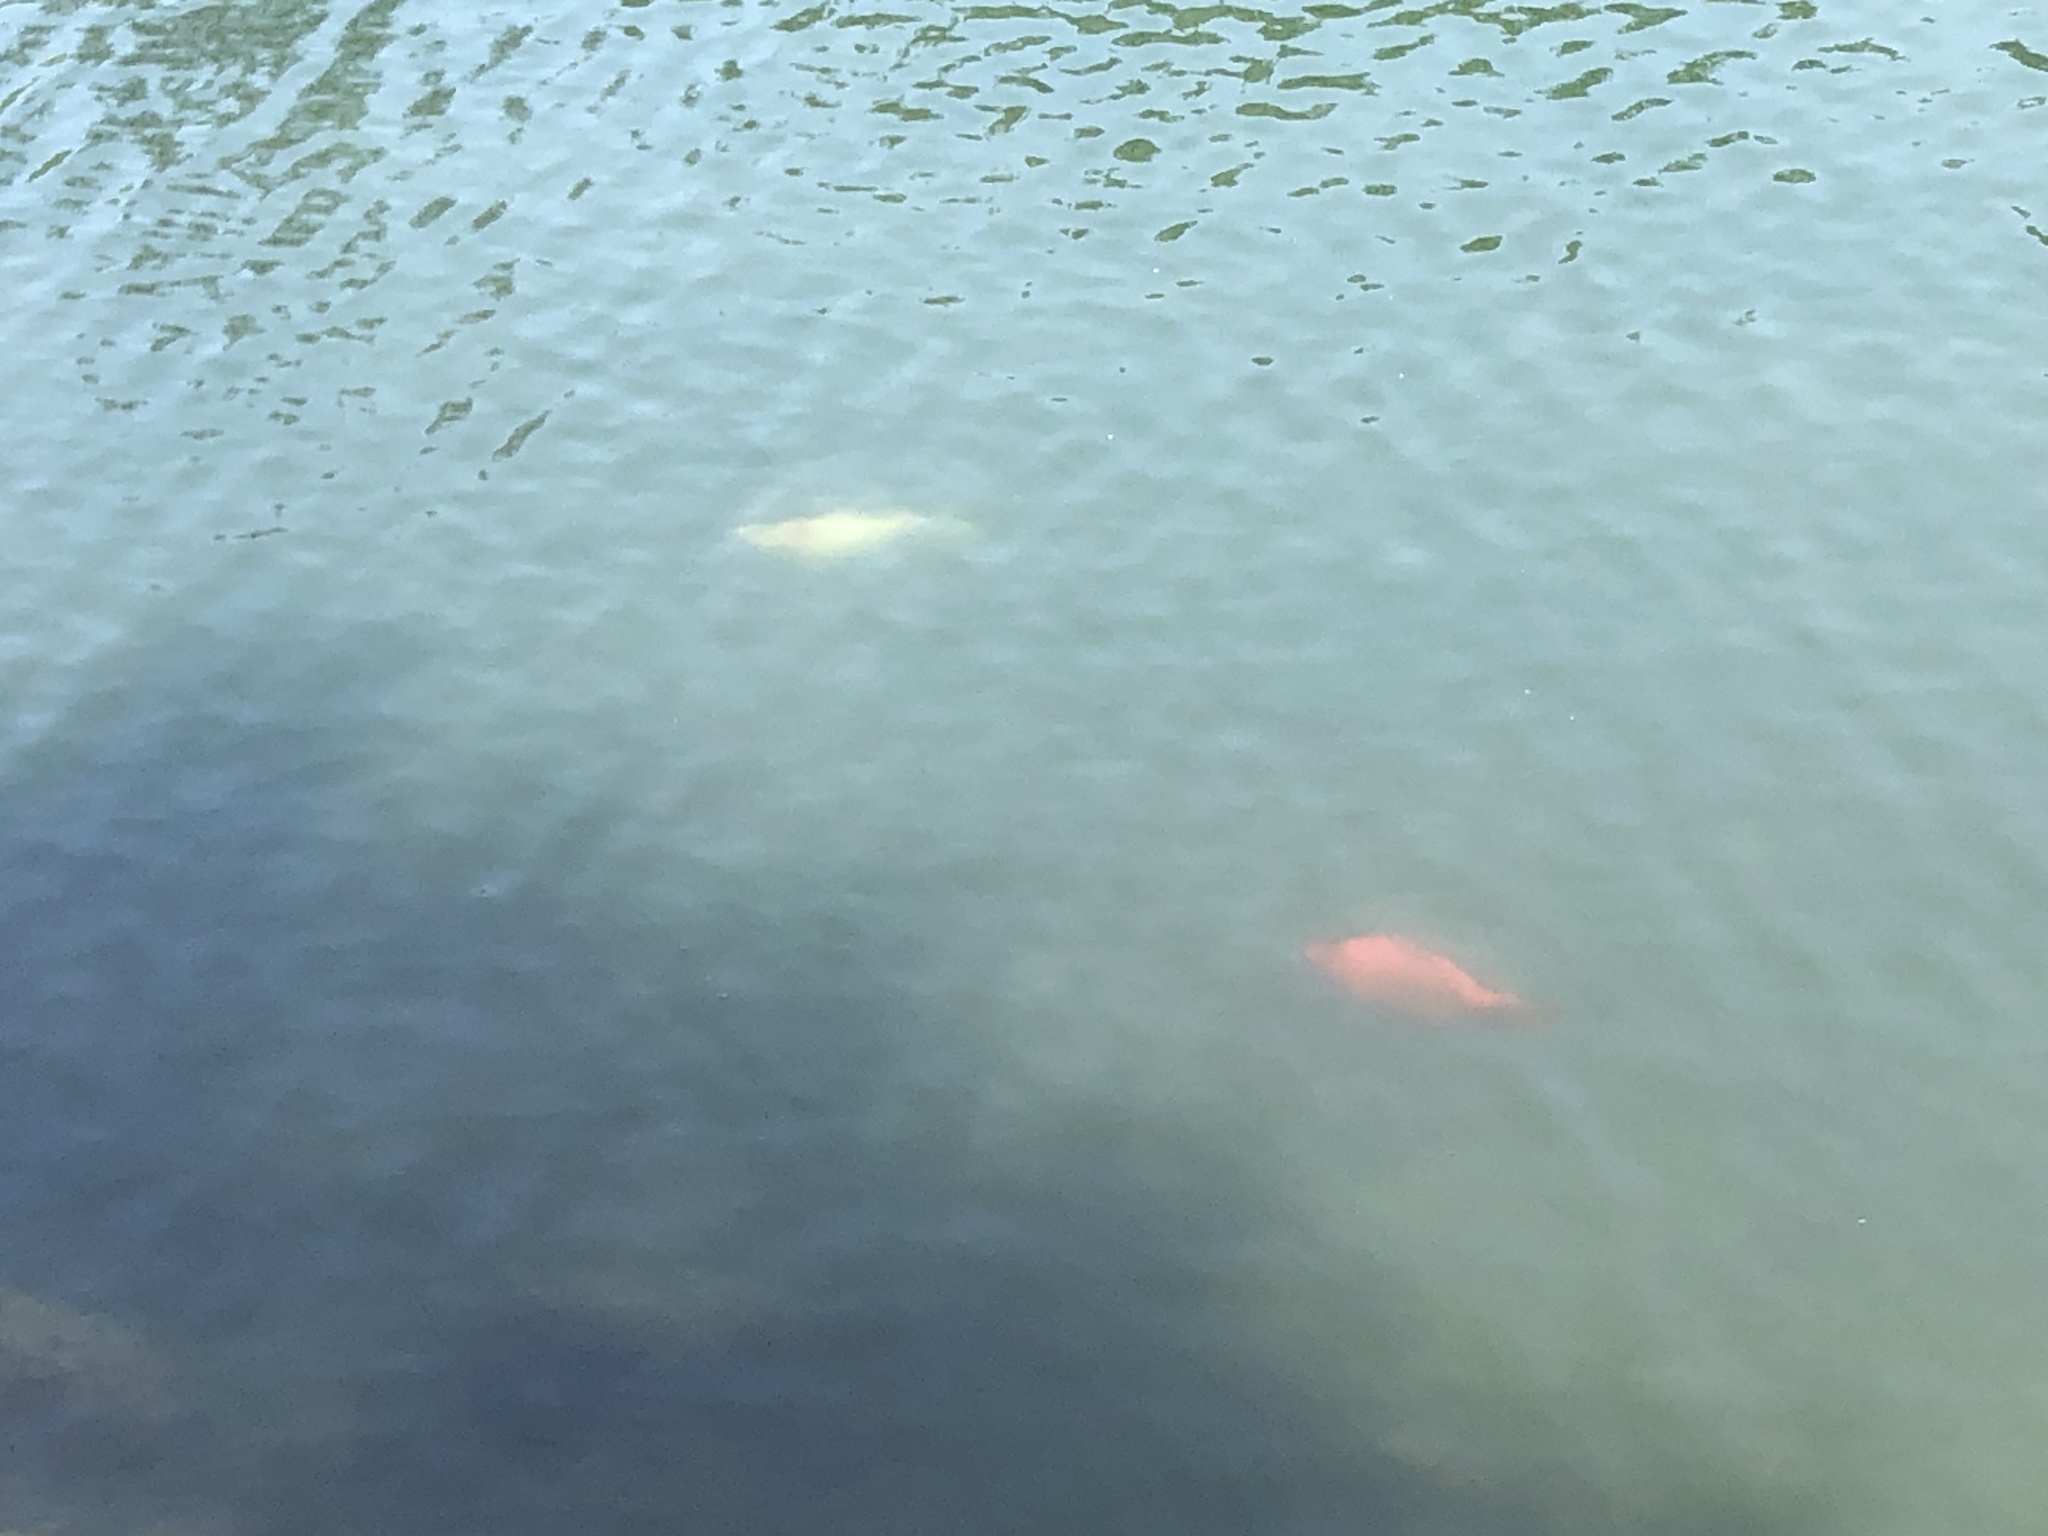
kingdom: Animalia
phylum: Chordata
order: Cypriniformes
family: Cyprinidae
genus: Carassius
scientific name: Carassius auratus
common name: Goldfish
